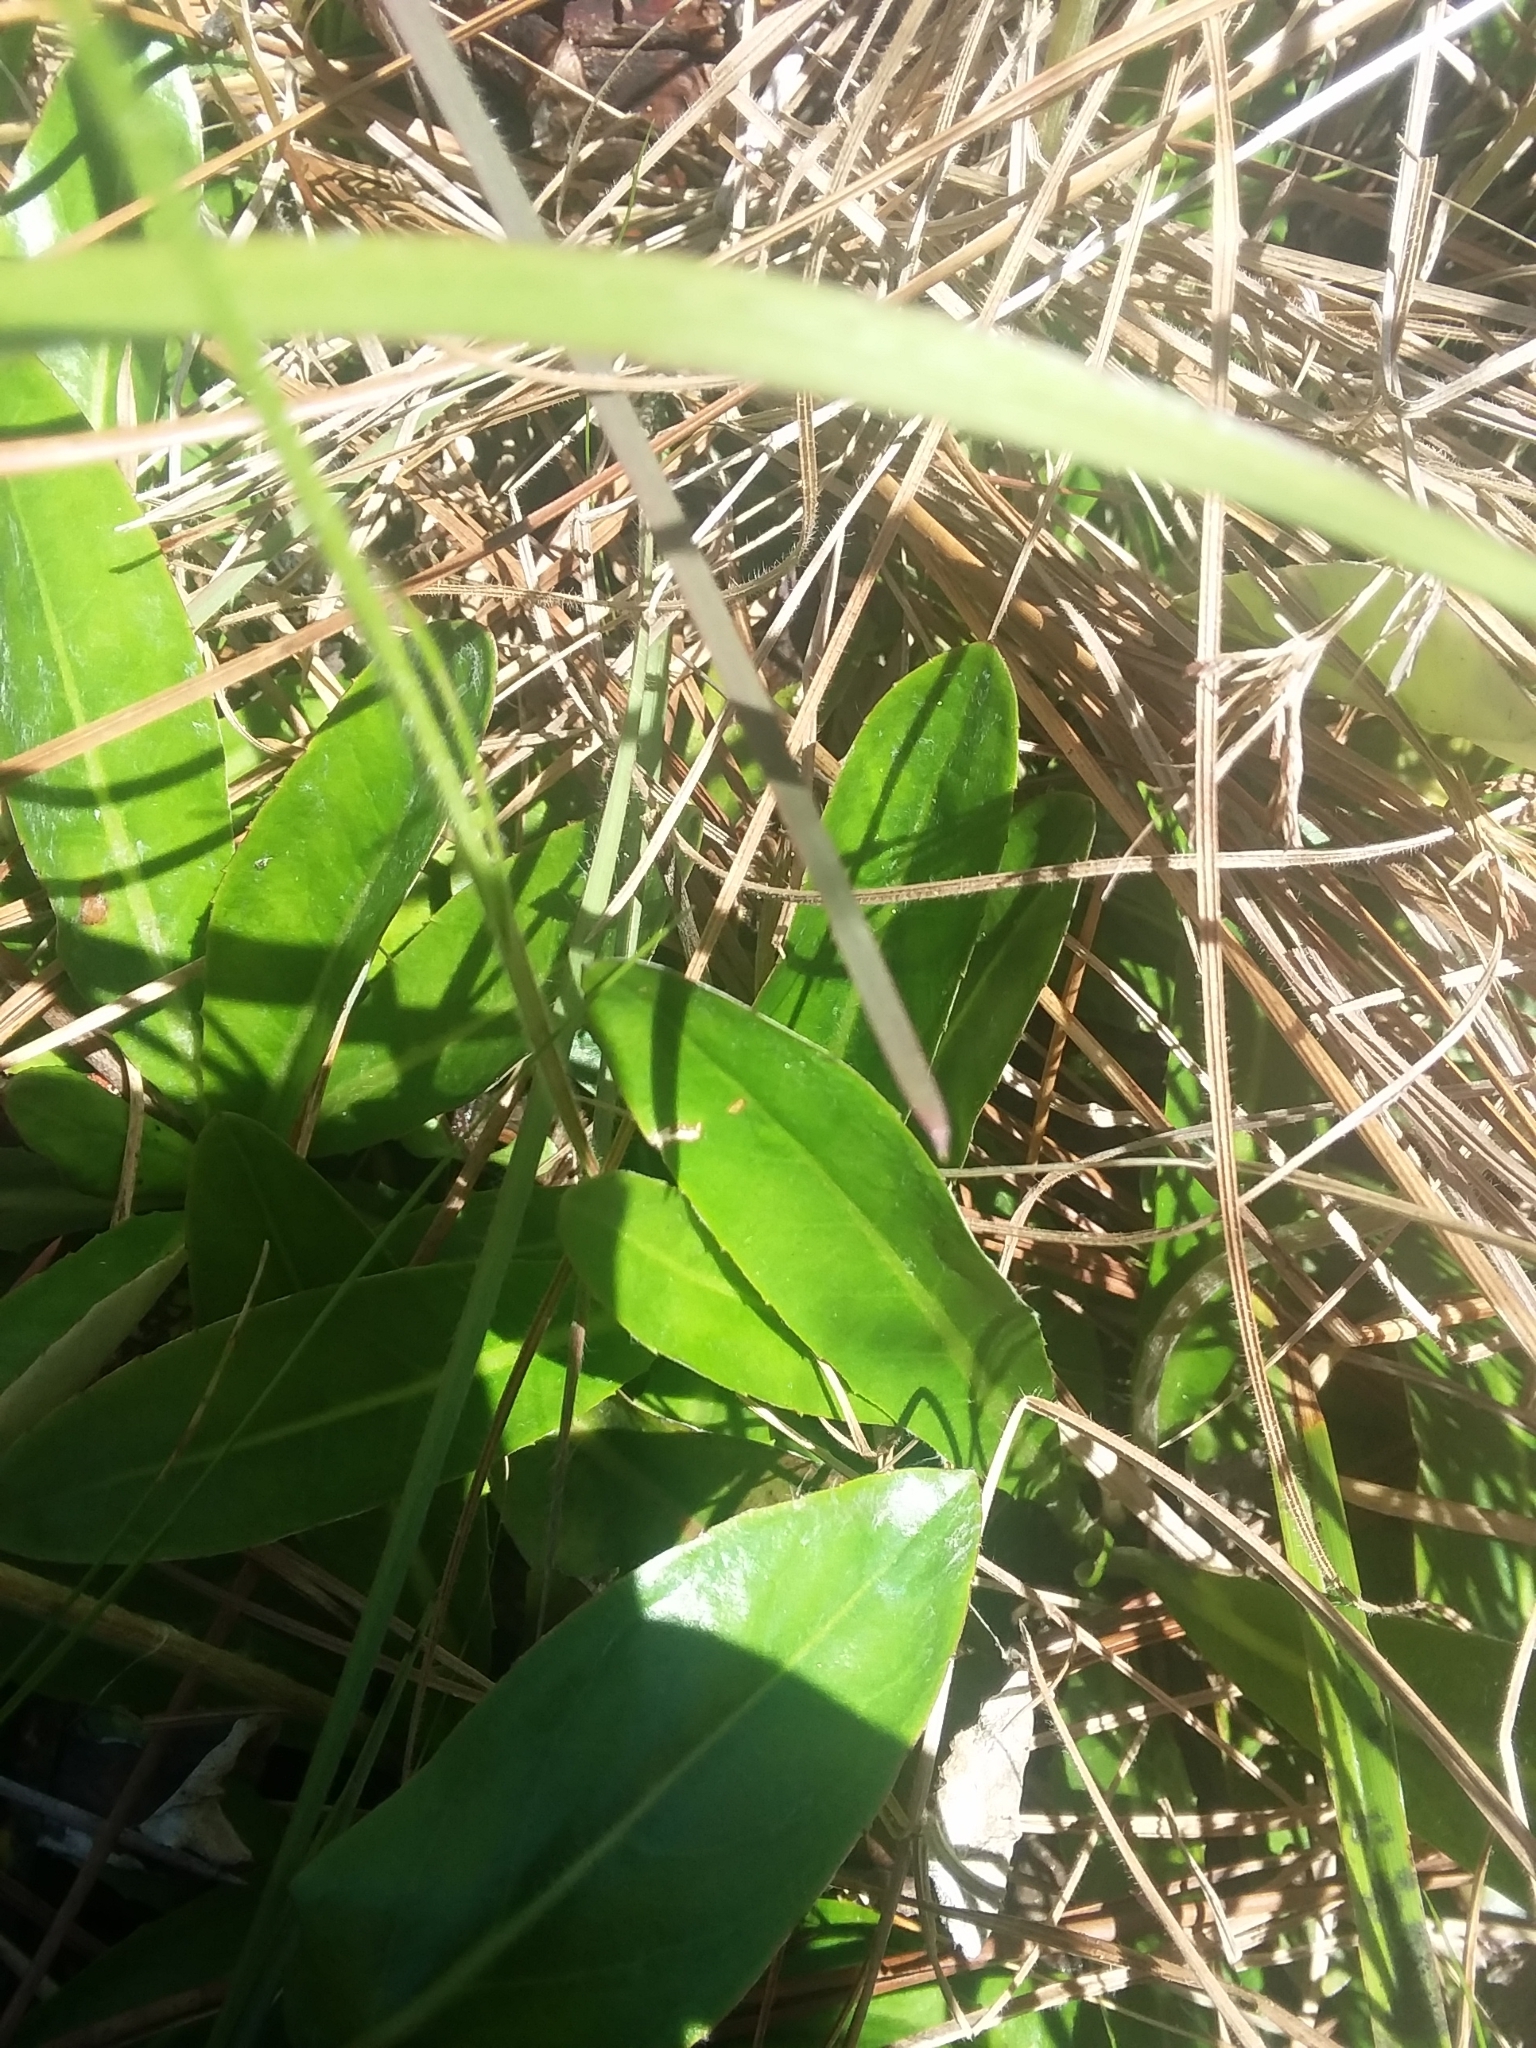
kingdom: Plantae
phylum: Tracheophyta
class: Magnoliopsida
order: Asterales
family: Asteraceae
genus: Chaptalia
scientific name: Chaptalia tomentosa
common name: Woolly sunbonnet
